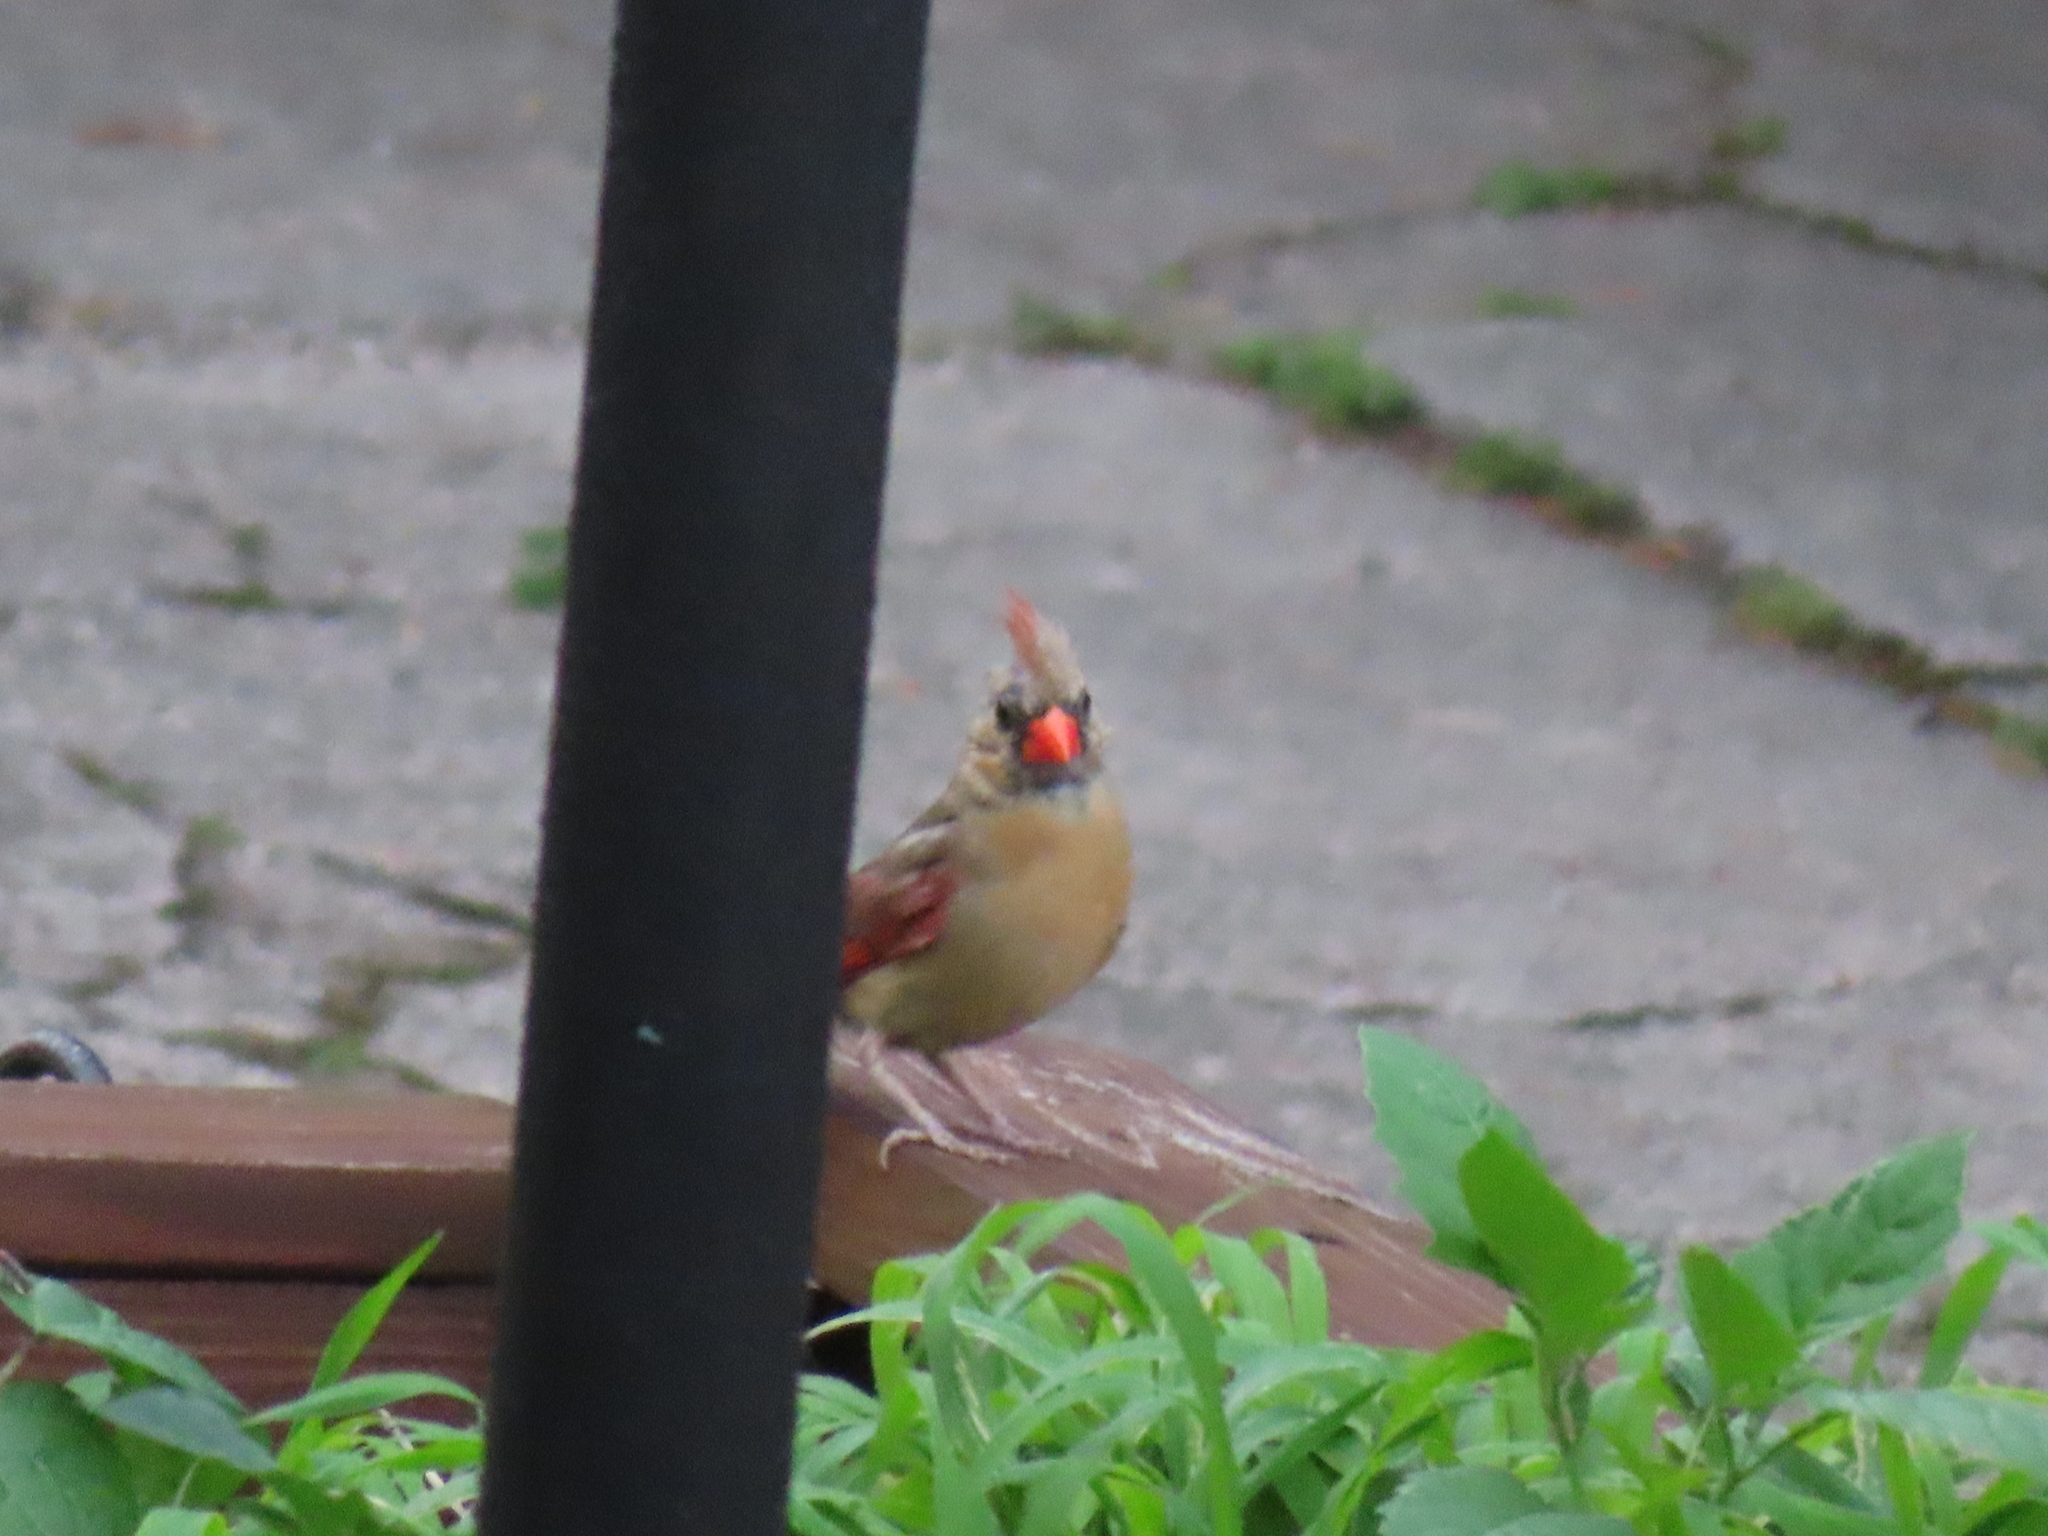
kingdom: Animalia
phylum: Chordata
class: Aves
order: Passeriformes
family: Cardinalidae
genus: Cardinalis
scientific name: Cardinalis cardinalis
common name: Northern cardinal
